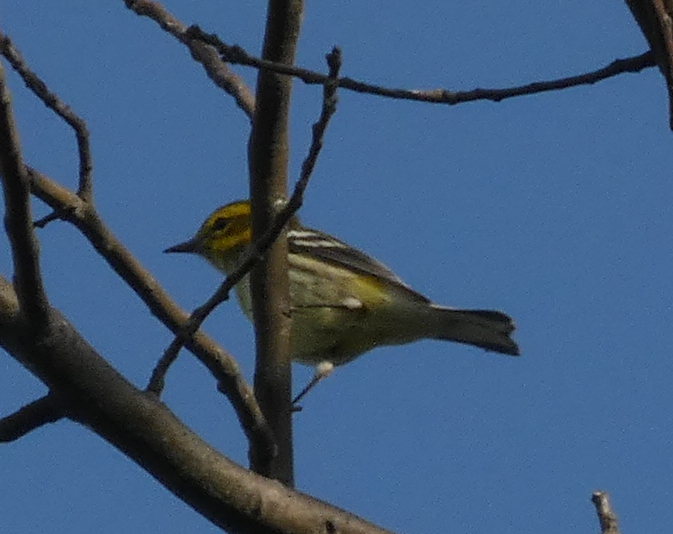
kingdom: Animalia
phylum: Chordata
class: Aves
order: Passeriformes
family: Parulidae
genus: Setophaga
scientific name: Setophaga virens
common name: Black-throated green warbler
